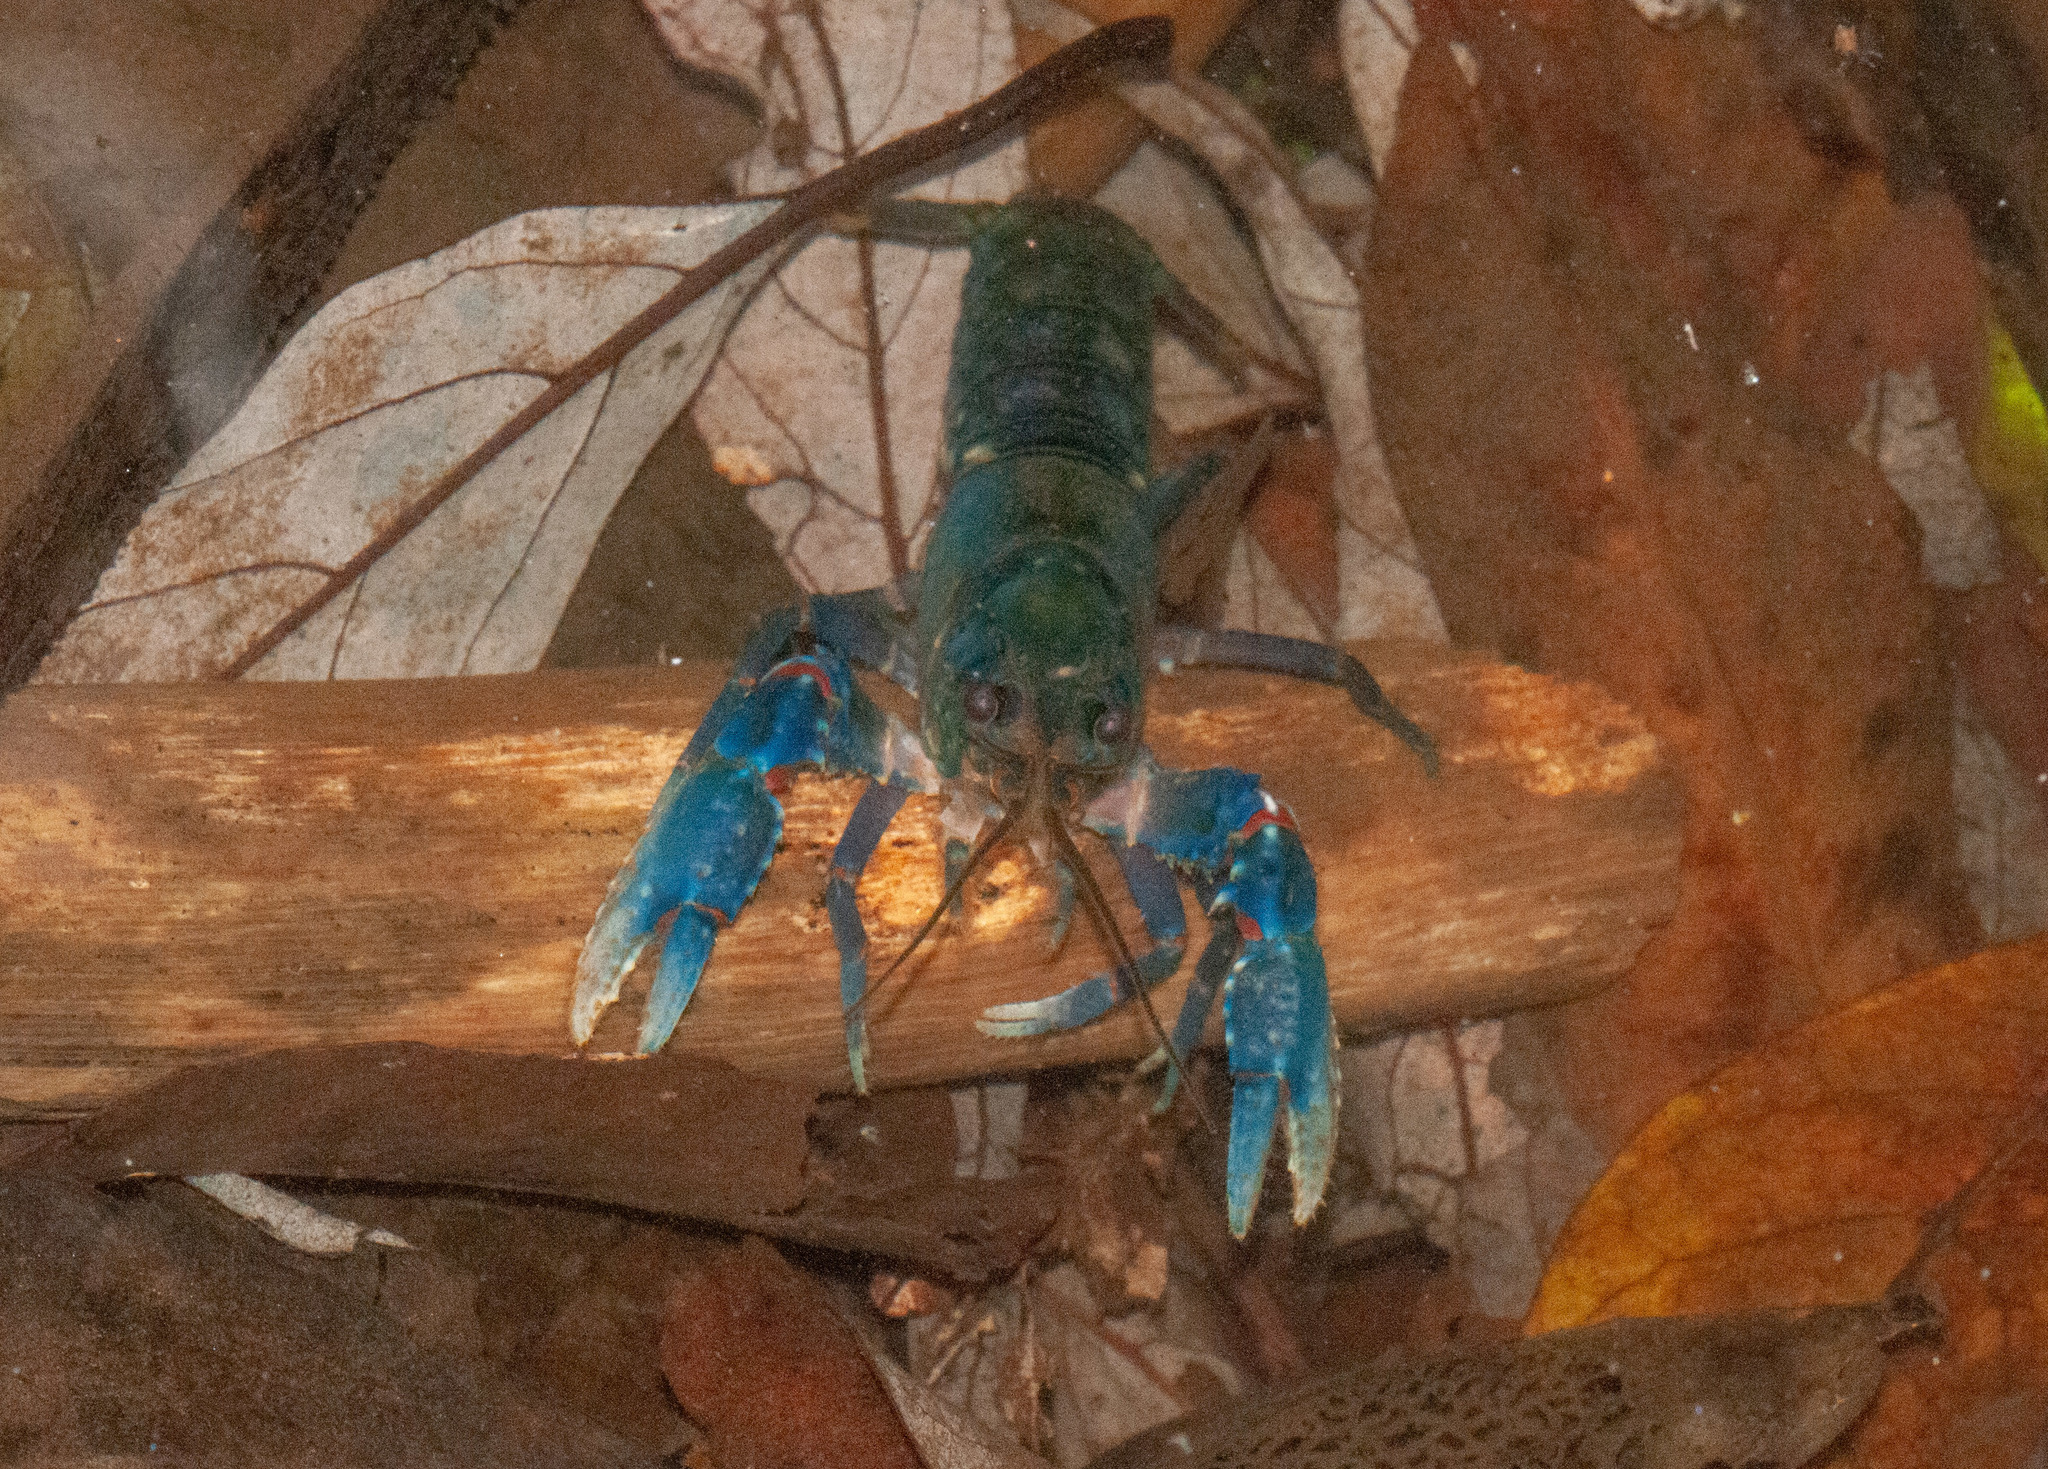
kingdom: Animalia
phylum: Arthropoda
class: Malacostraca
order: Decapoda
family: Parastacidae
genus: Euastacus
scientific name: Euastacus sulcatus
